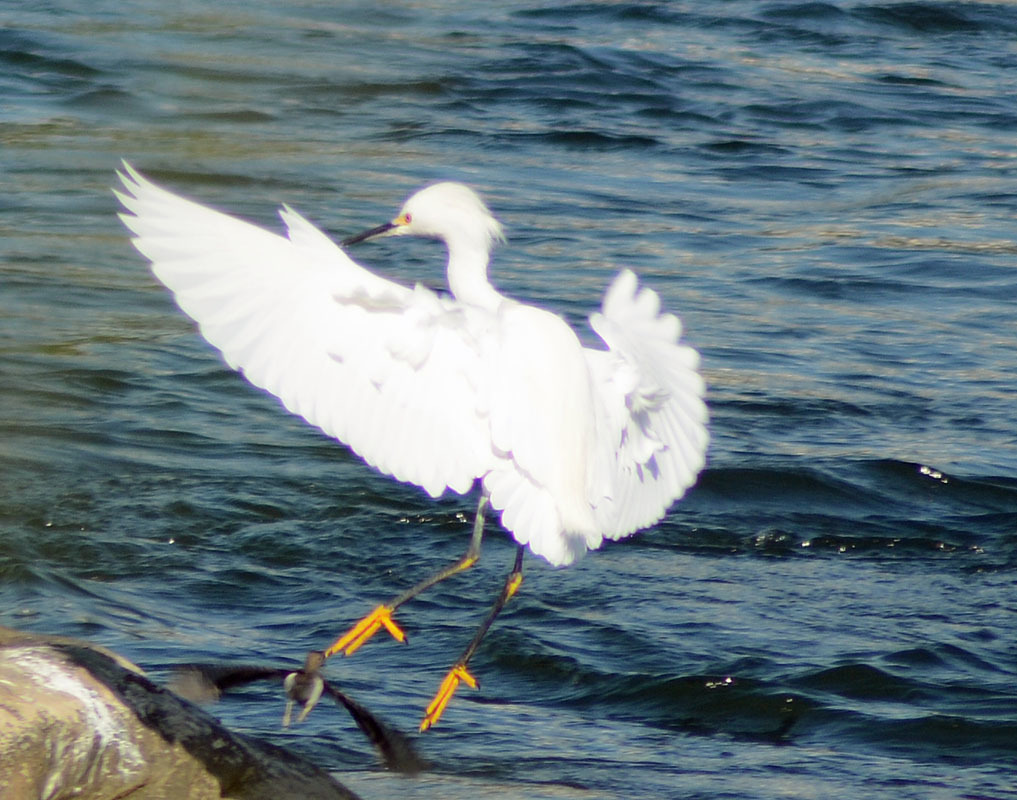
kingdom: Animalia
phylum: Chordata
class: Aves
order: Pelecaniformes
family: Ardeidae
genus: Egretta
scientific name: Egretta thula
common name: Snowy egret
